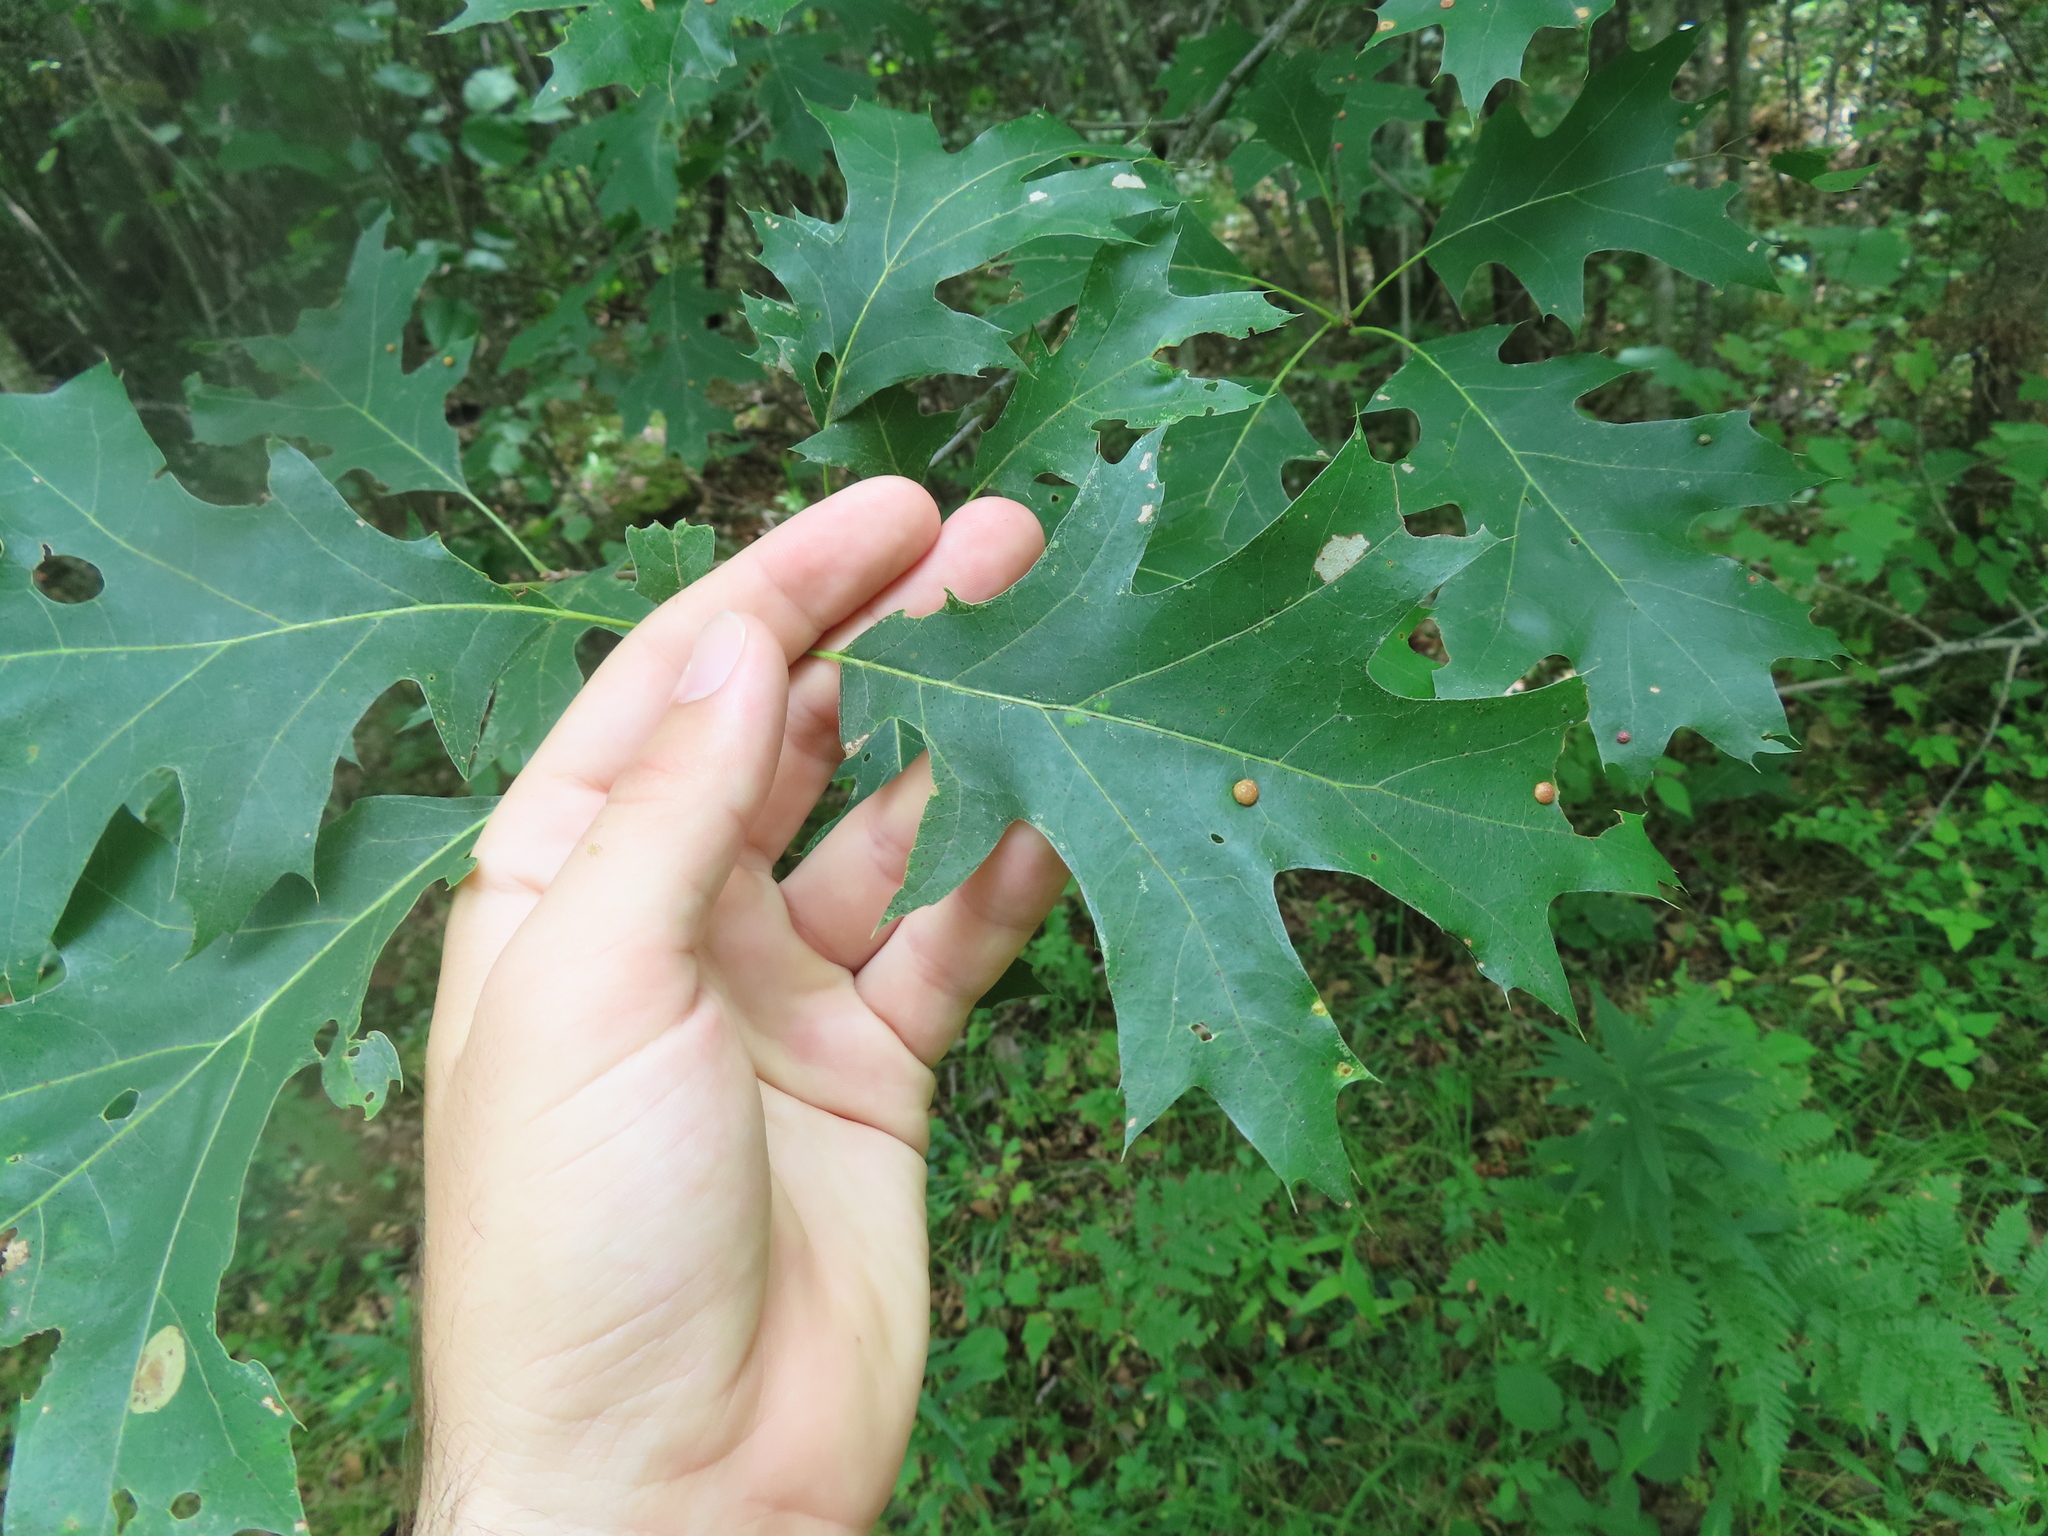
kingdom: Animalia
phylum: Arthropoda
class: Insecta
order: Diptera
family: Cecidomyiidae
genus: Polystepha
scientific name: Polystepha pilulae
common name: Oak leaf gall midge
